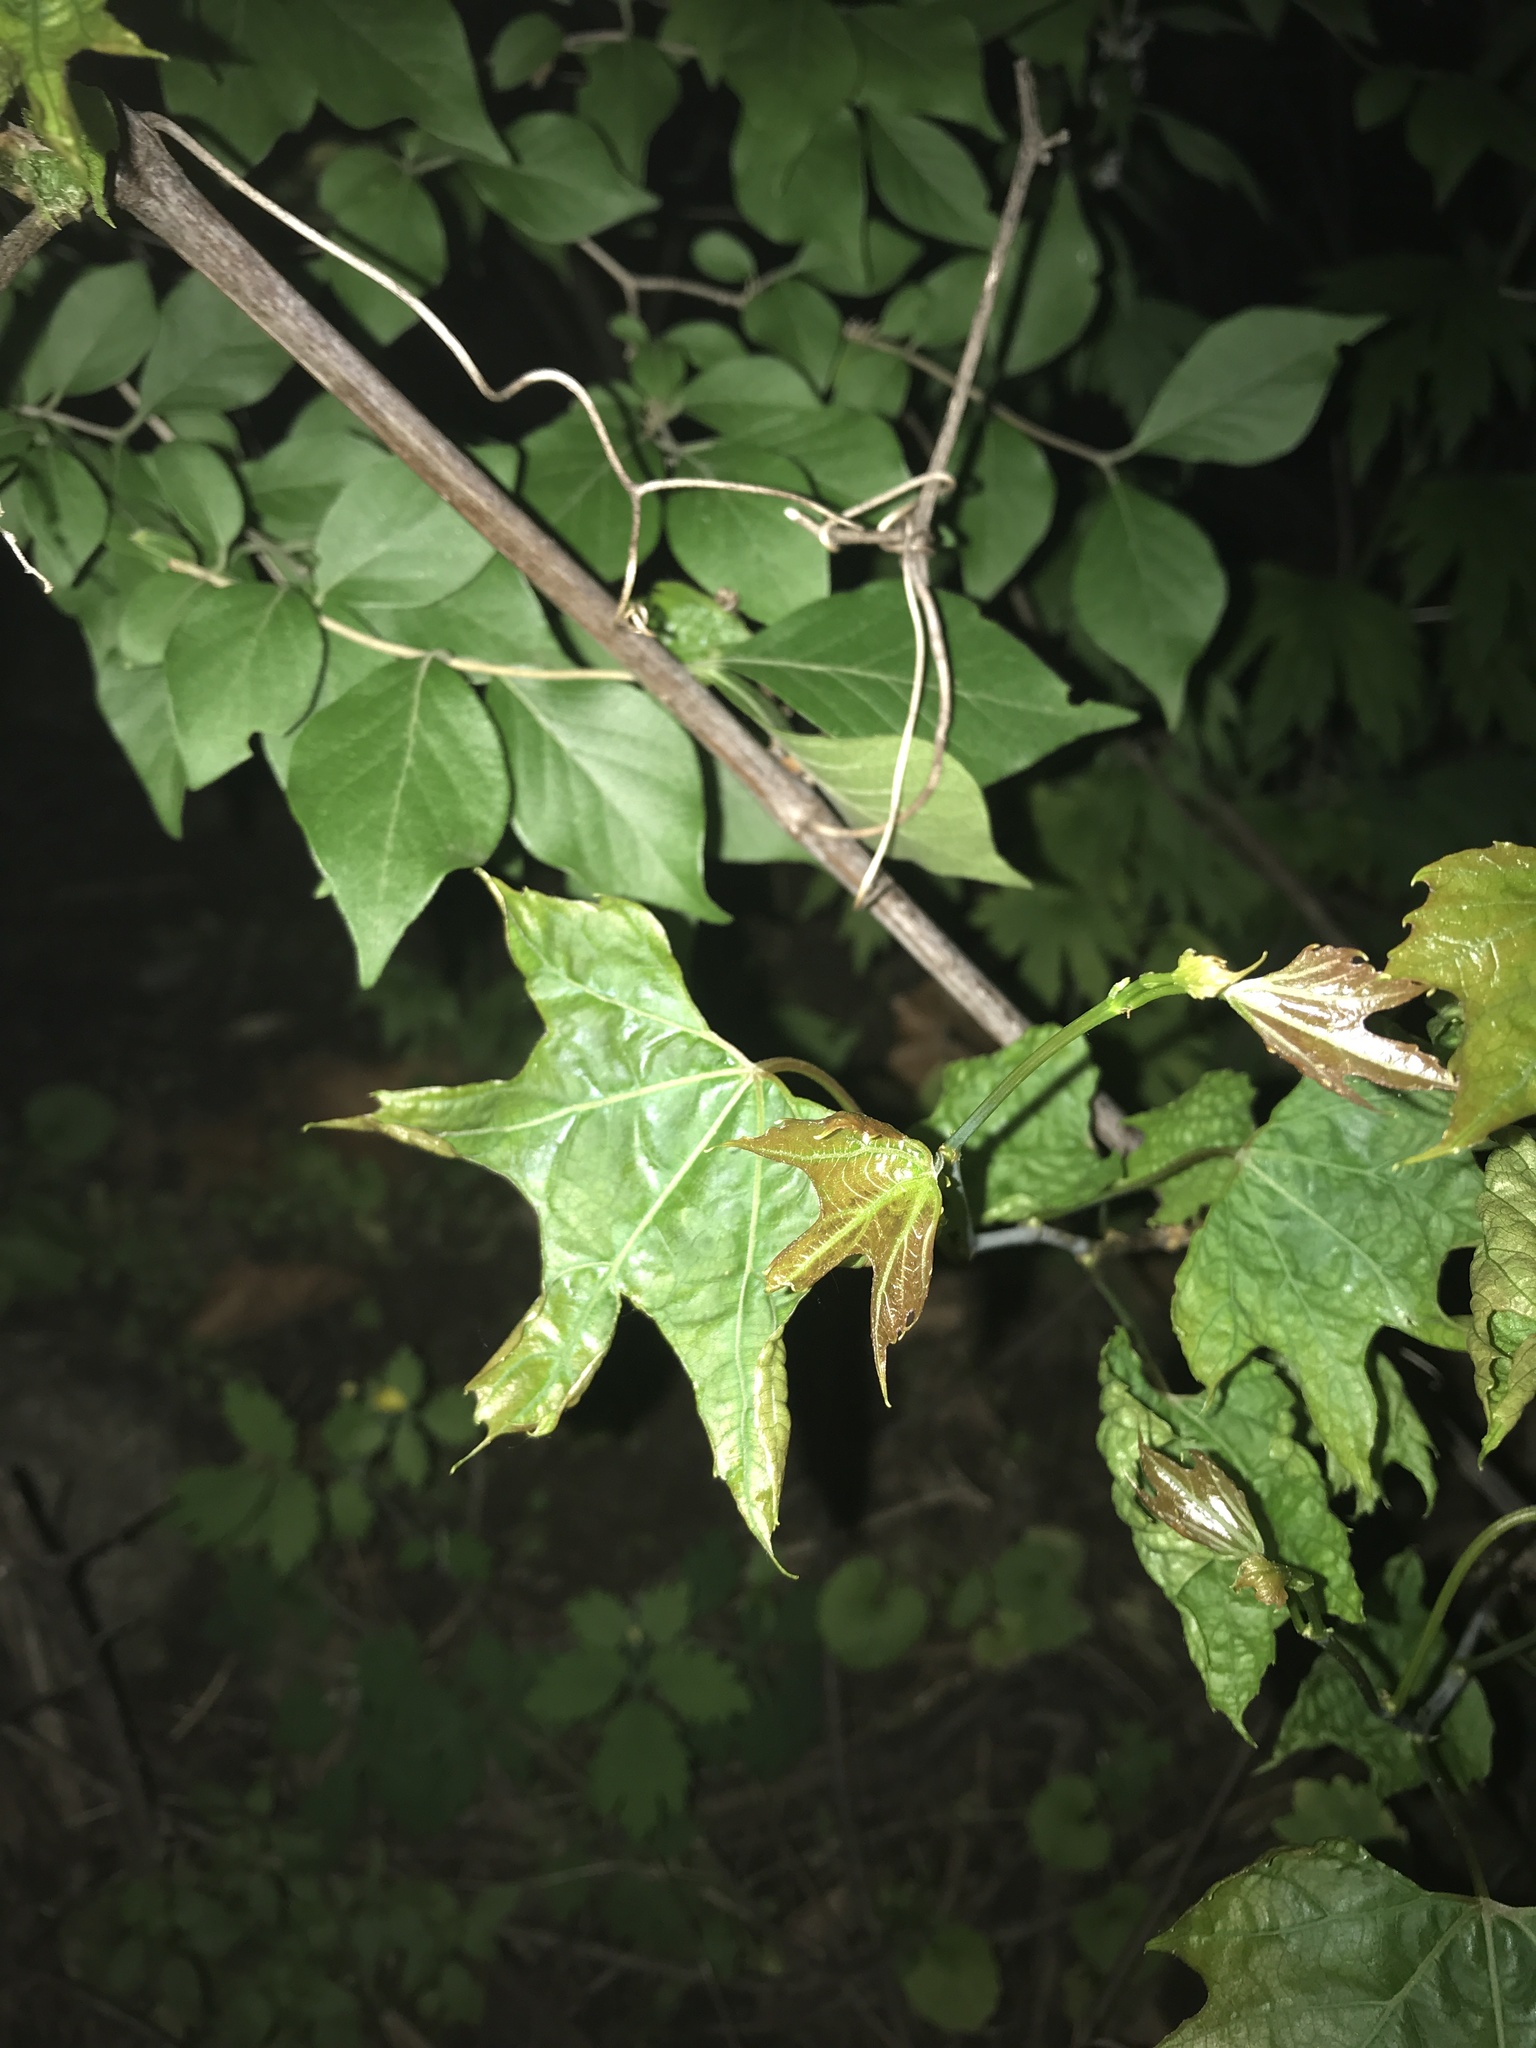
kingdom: Plantae
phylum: Tracheophyta
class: Magnoliopsida
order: Saxifragales
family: Altingiaceae
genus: Liquidambar
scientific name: Liquidambar styraciflua
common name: Sweet gum
